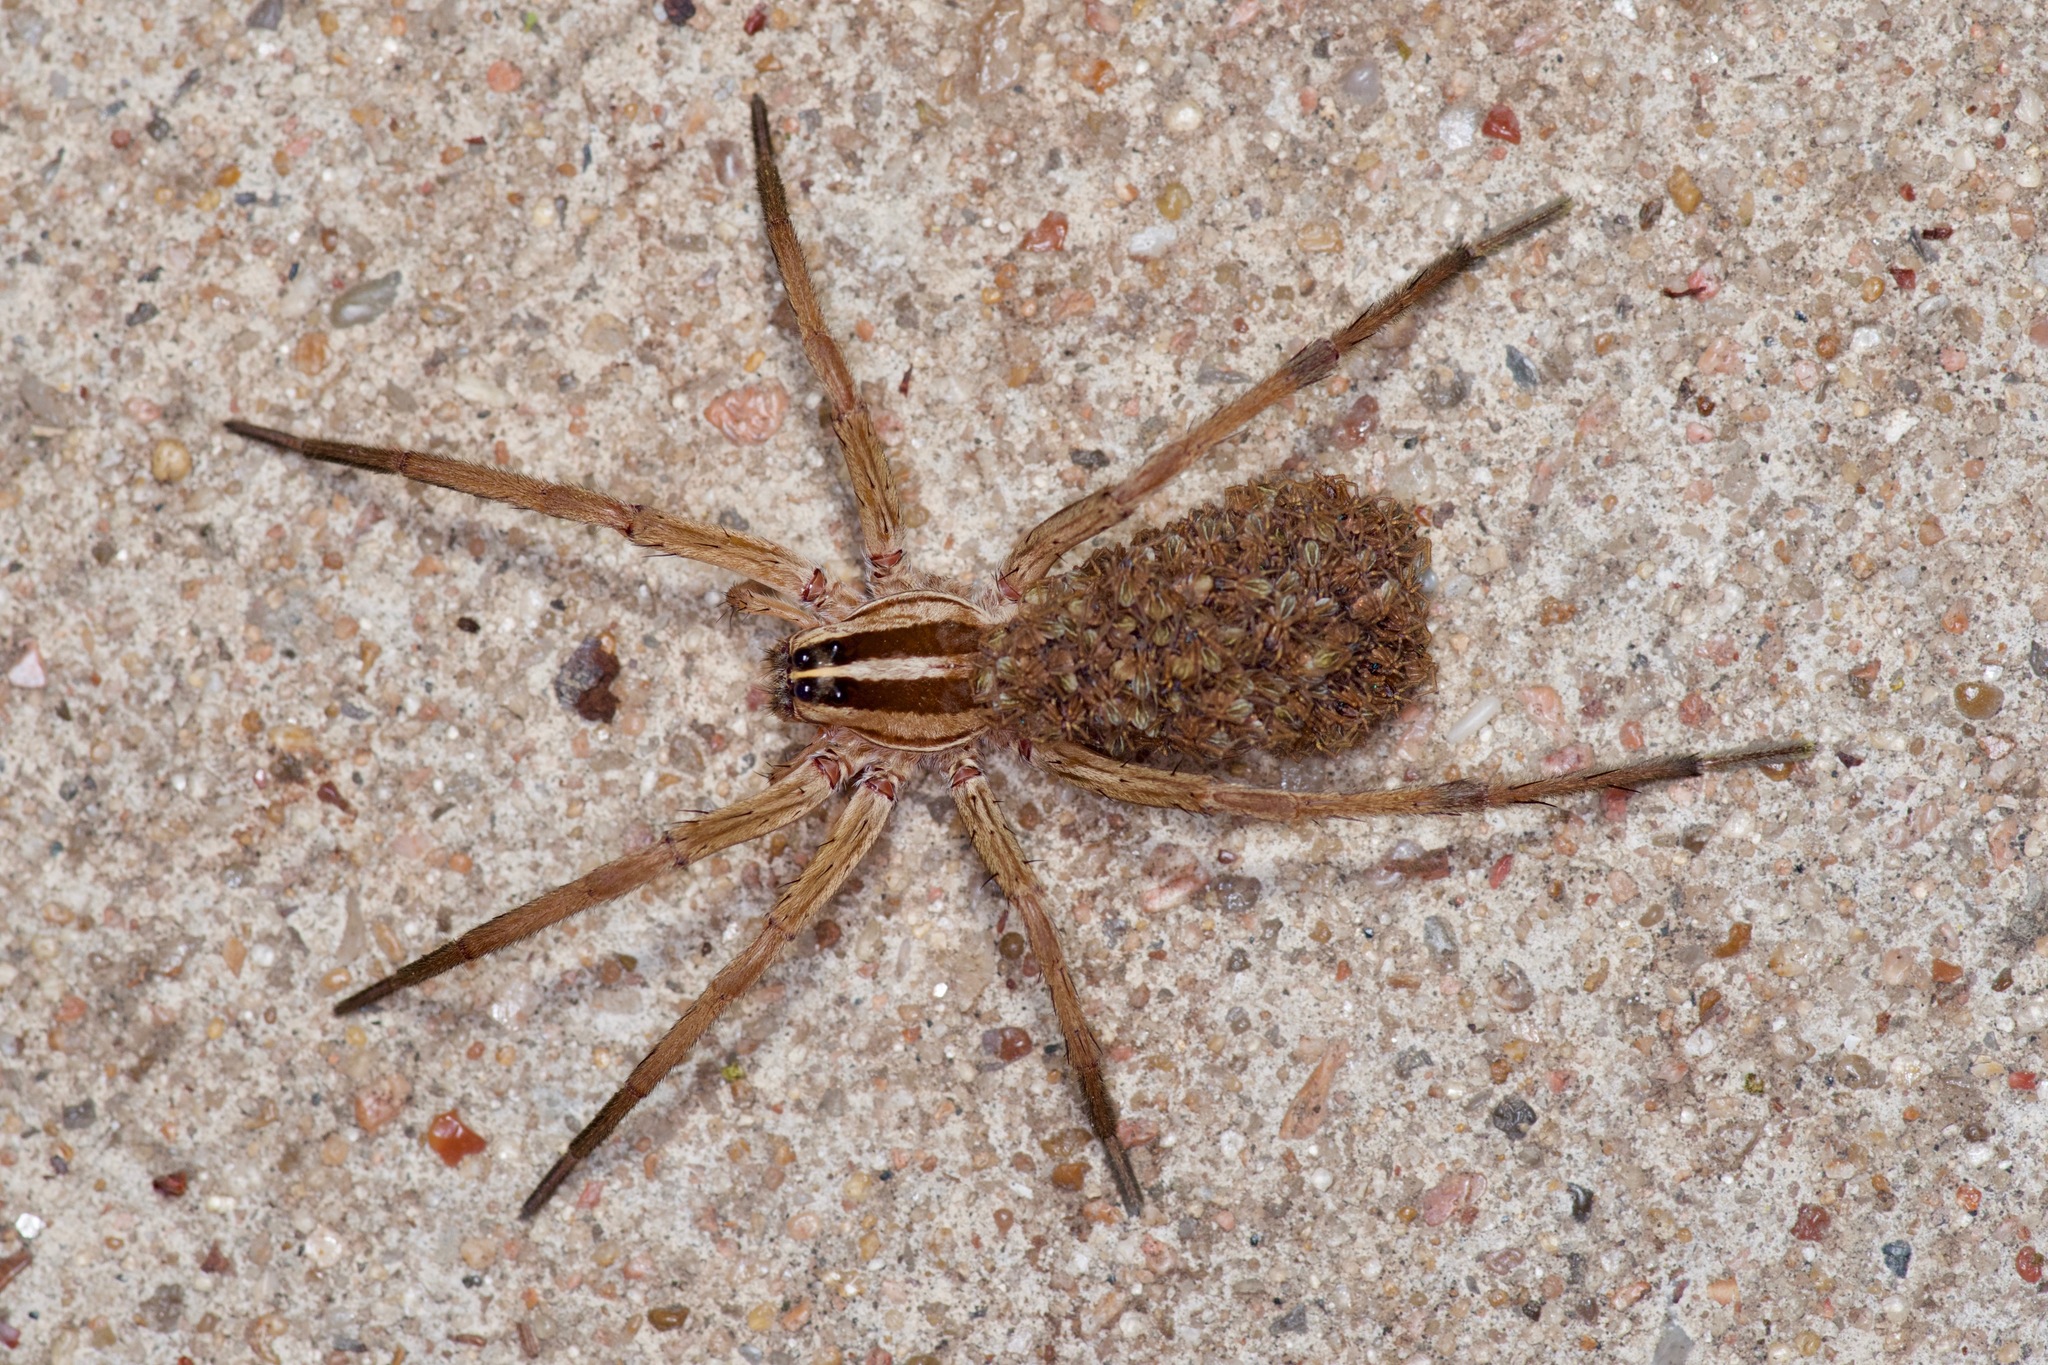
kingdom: Animalia
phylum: Arthropoda
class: Arachnida
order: Araneae
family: Lycosidae
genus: Rabidosa
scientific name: Rabidosa
